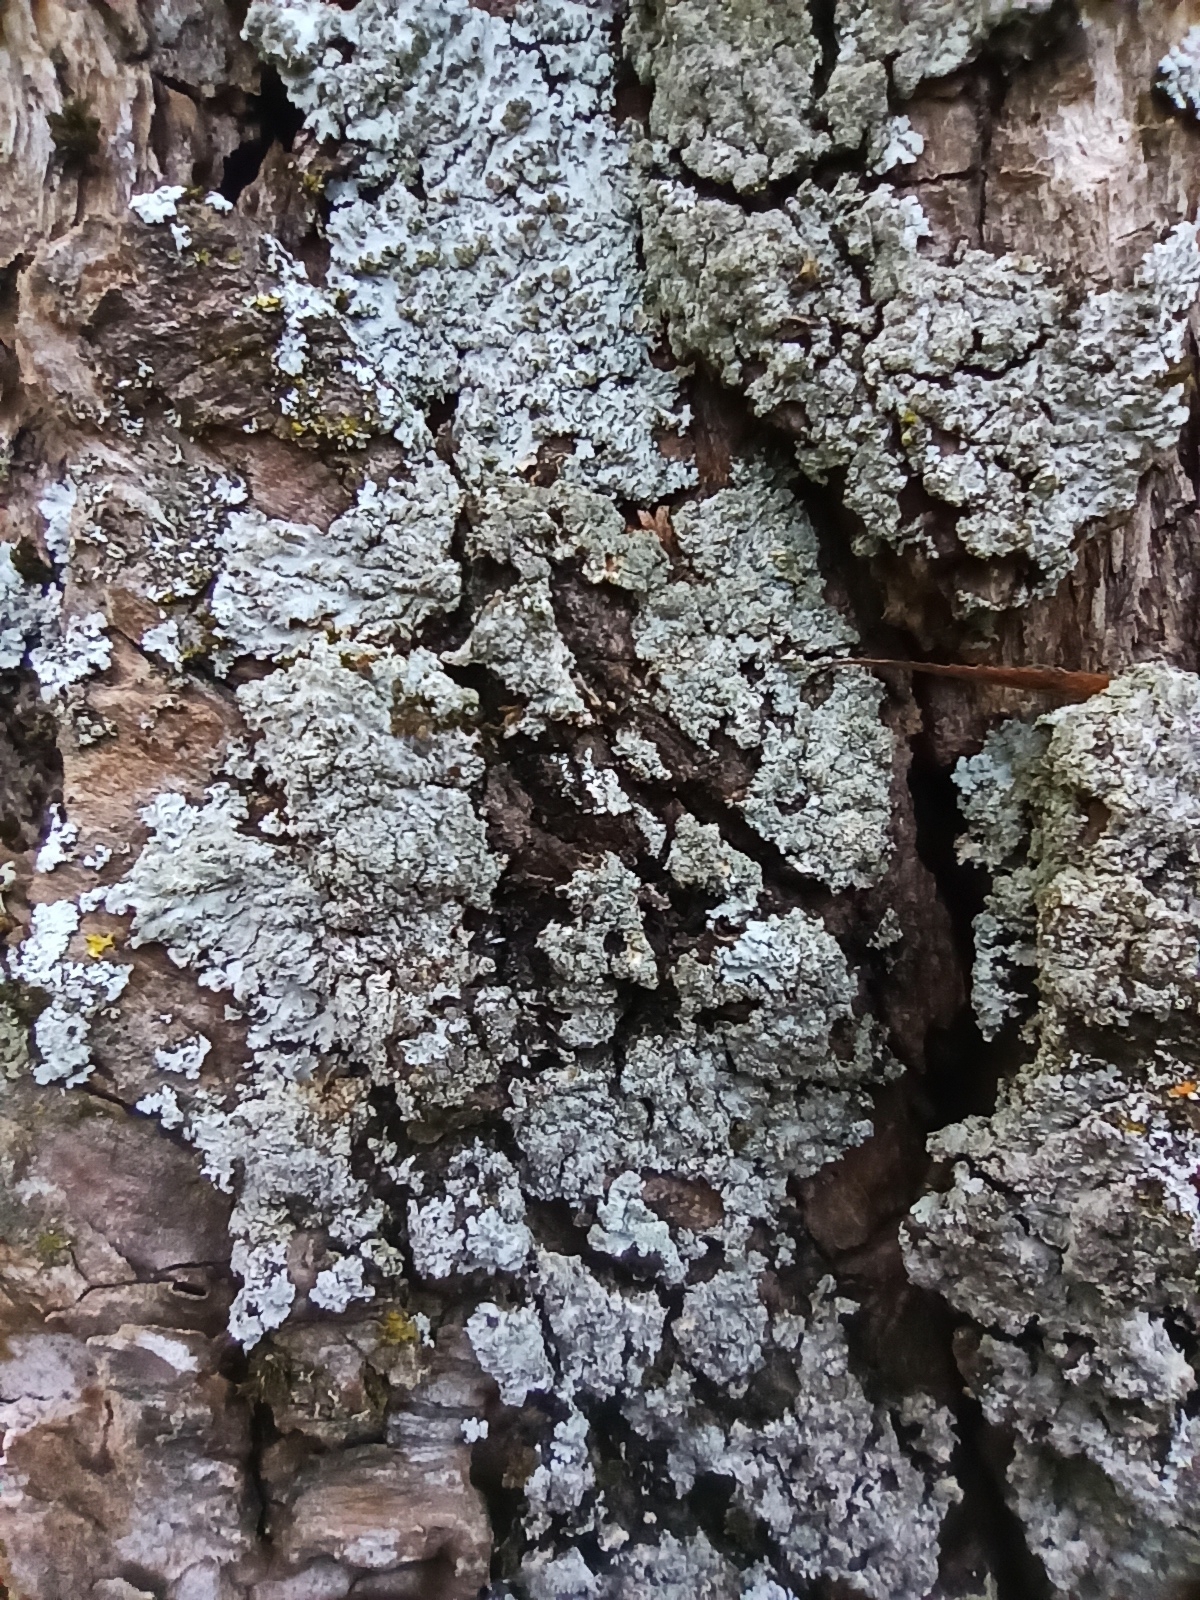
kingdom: Fungi
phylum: Ascomycota
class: Lecanoromycetes
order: Caliciales
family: Physciaceae
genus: Physconia
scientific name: Physconia enteroxantha
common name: Yellow-edged frost lichen
